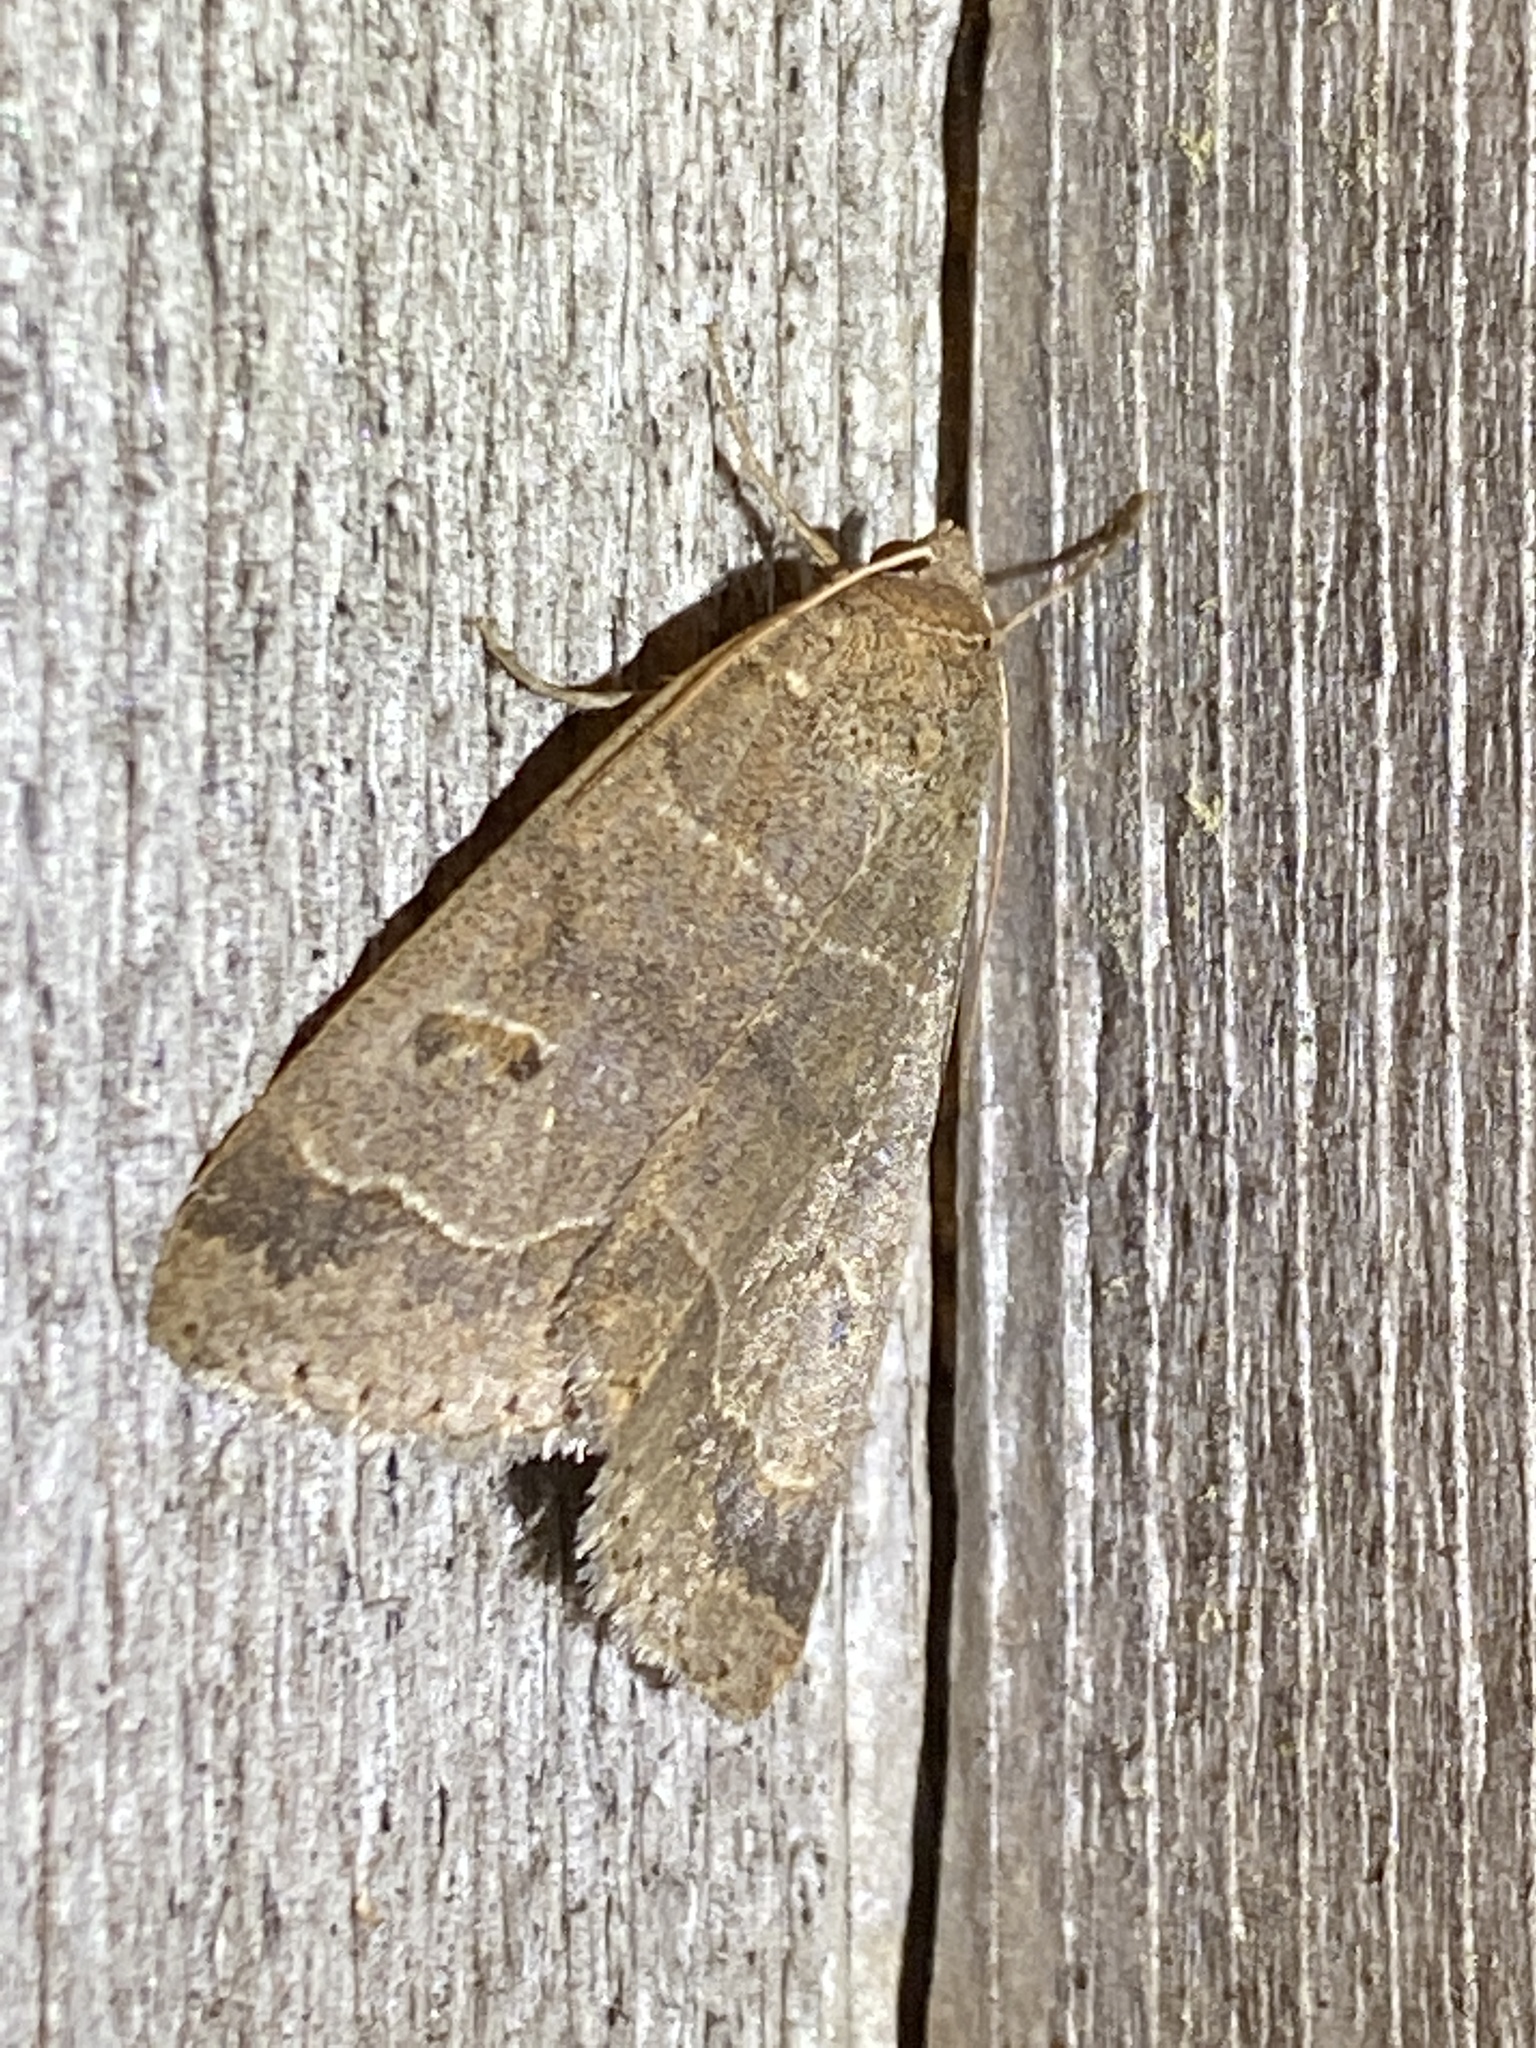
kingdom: Animalia
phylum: Arthropoda
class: Insecta
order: Lepidoptera
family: Erebidae
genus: Phoberia
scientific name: Phoberia atomaris
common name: Common oak moth
